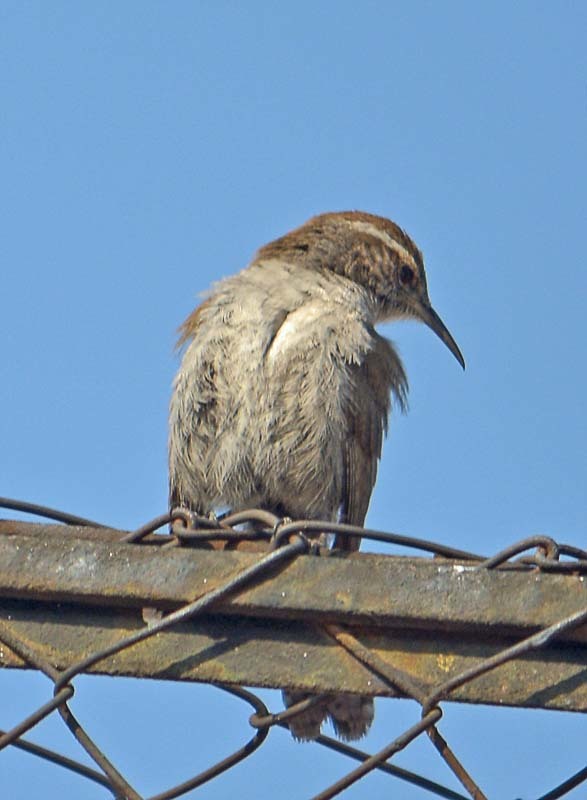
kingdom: Animalia
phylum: Chordata
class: Aves
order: Passeriformes
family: Troglodytidae
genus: Thryomanes
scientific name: Thryomanes bewickii
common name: Bewick's wren
